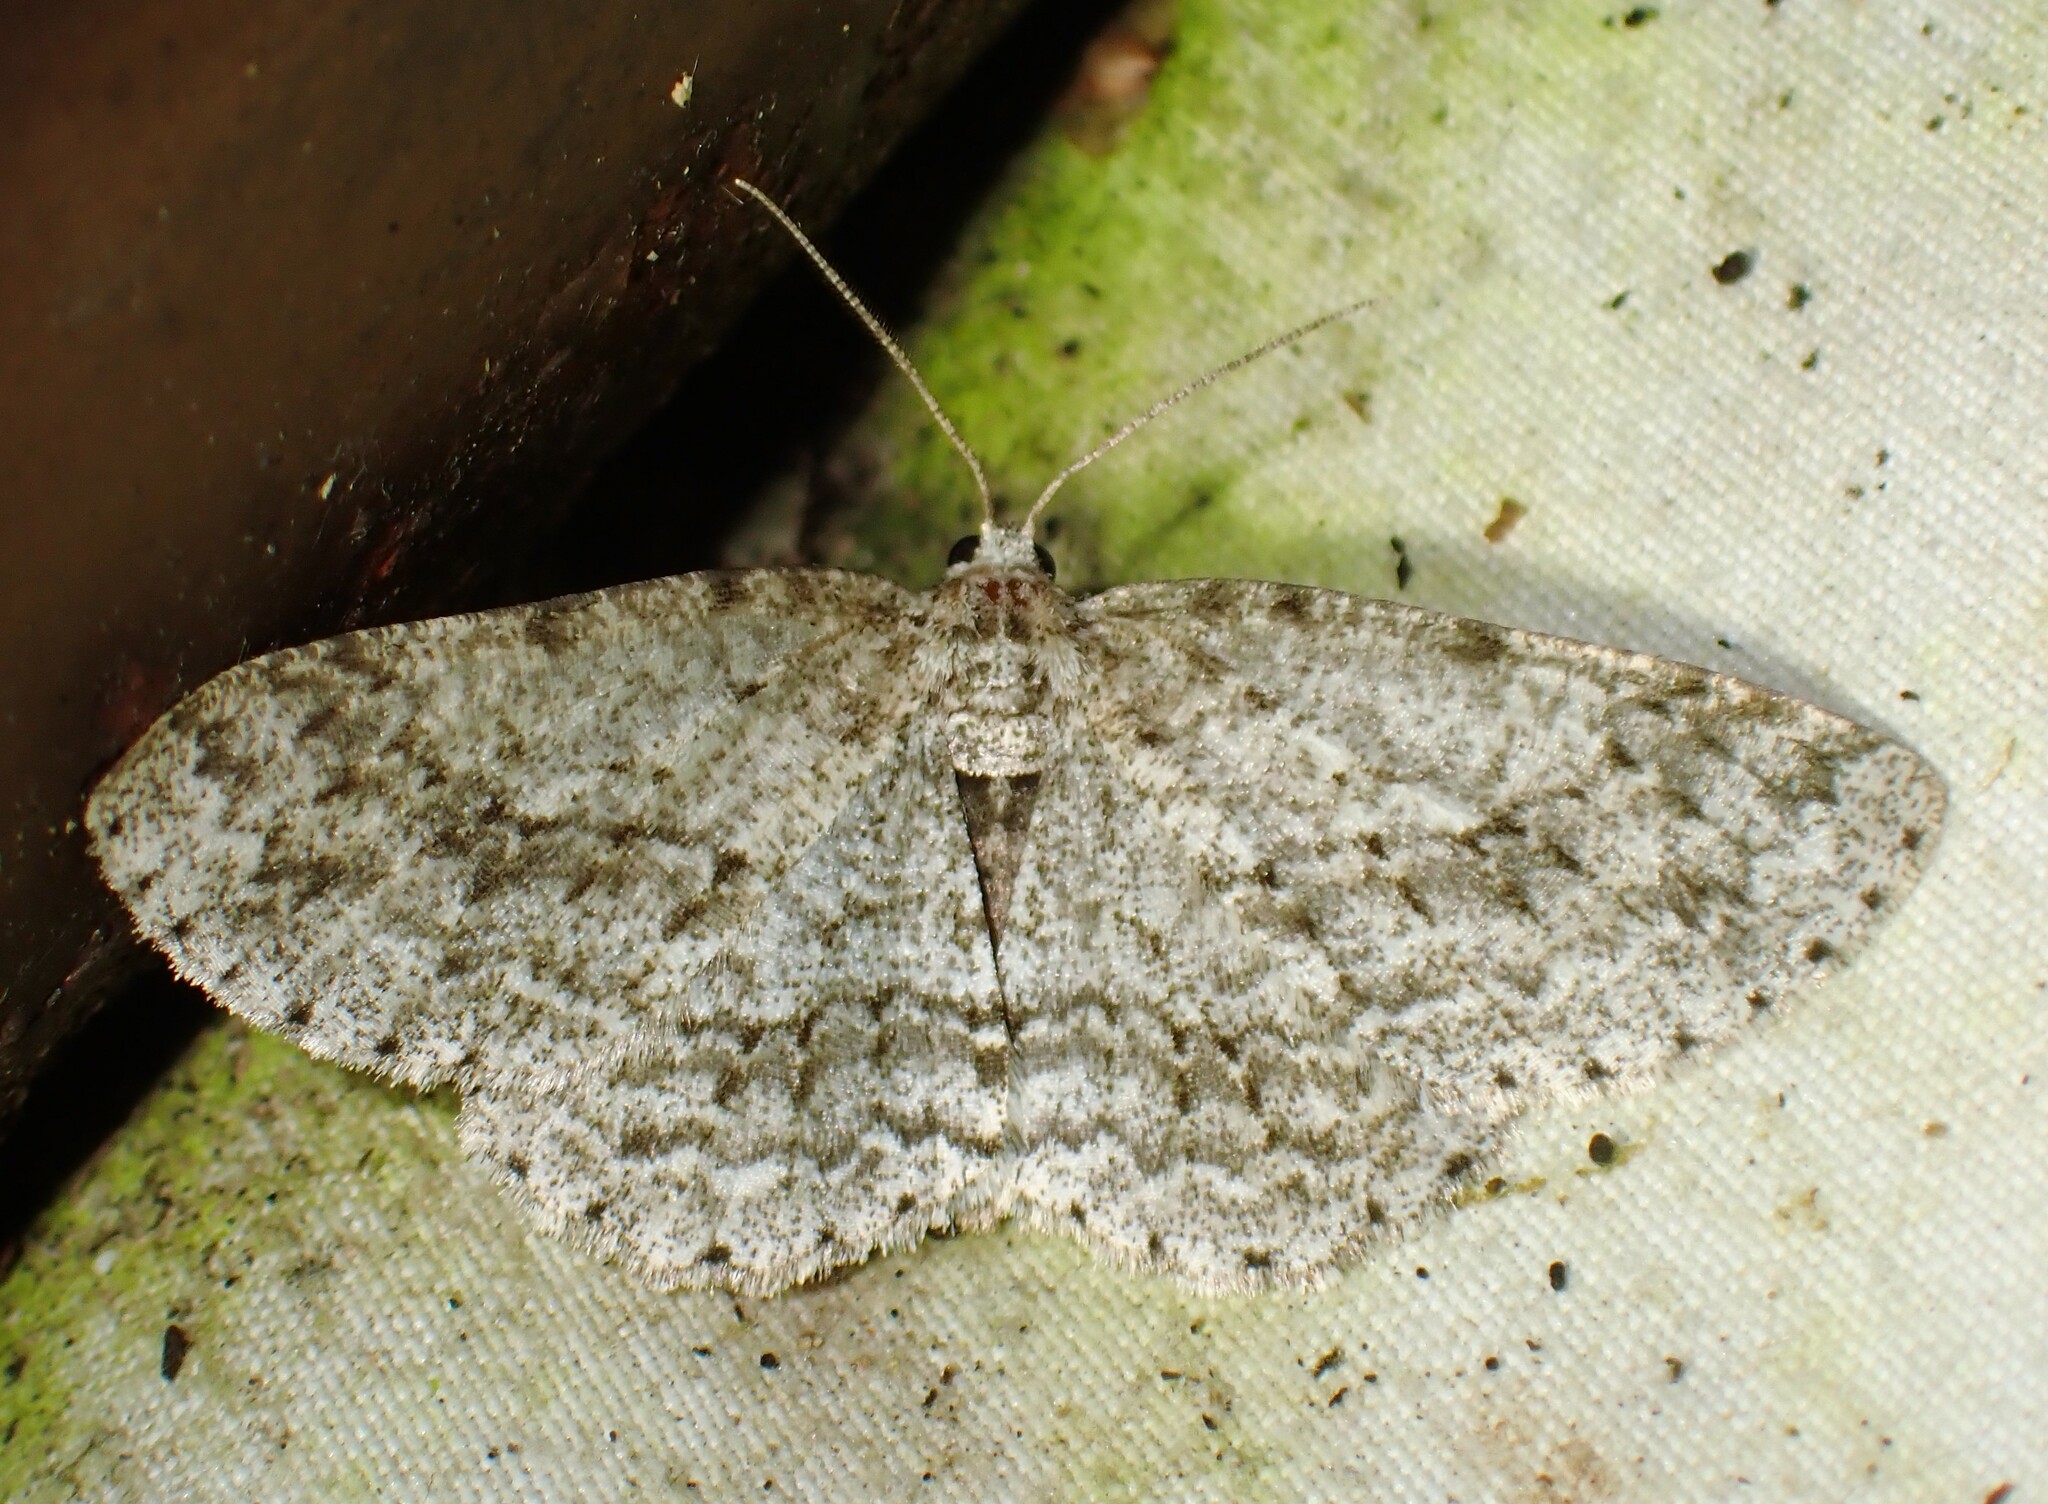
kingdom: Animalia
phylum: Arthropoda
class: Insecta
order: Lepidoptera
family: Geometridae
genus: Ectropis
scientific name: Ectropis crepuscularia
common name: Engrailed
